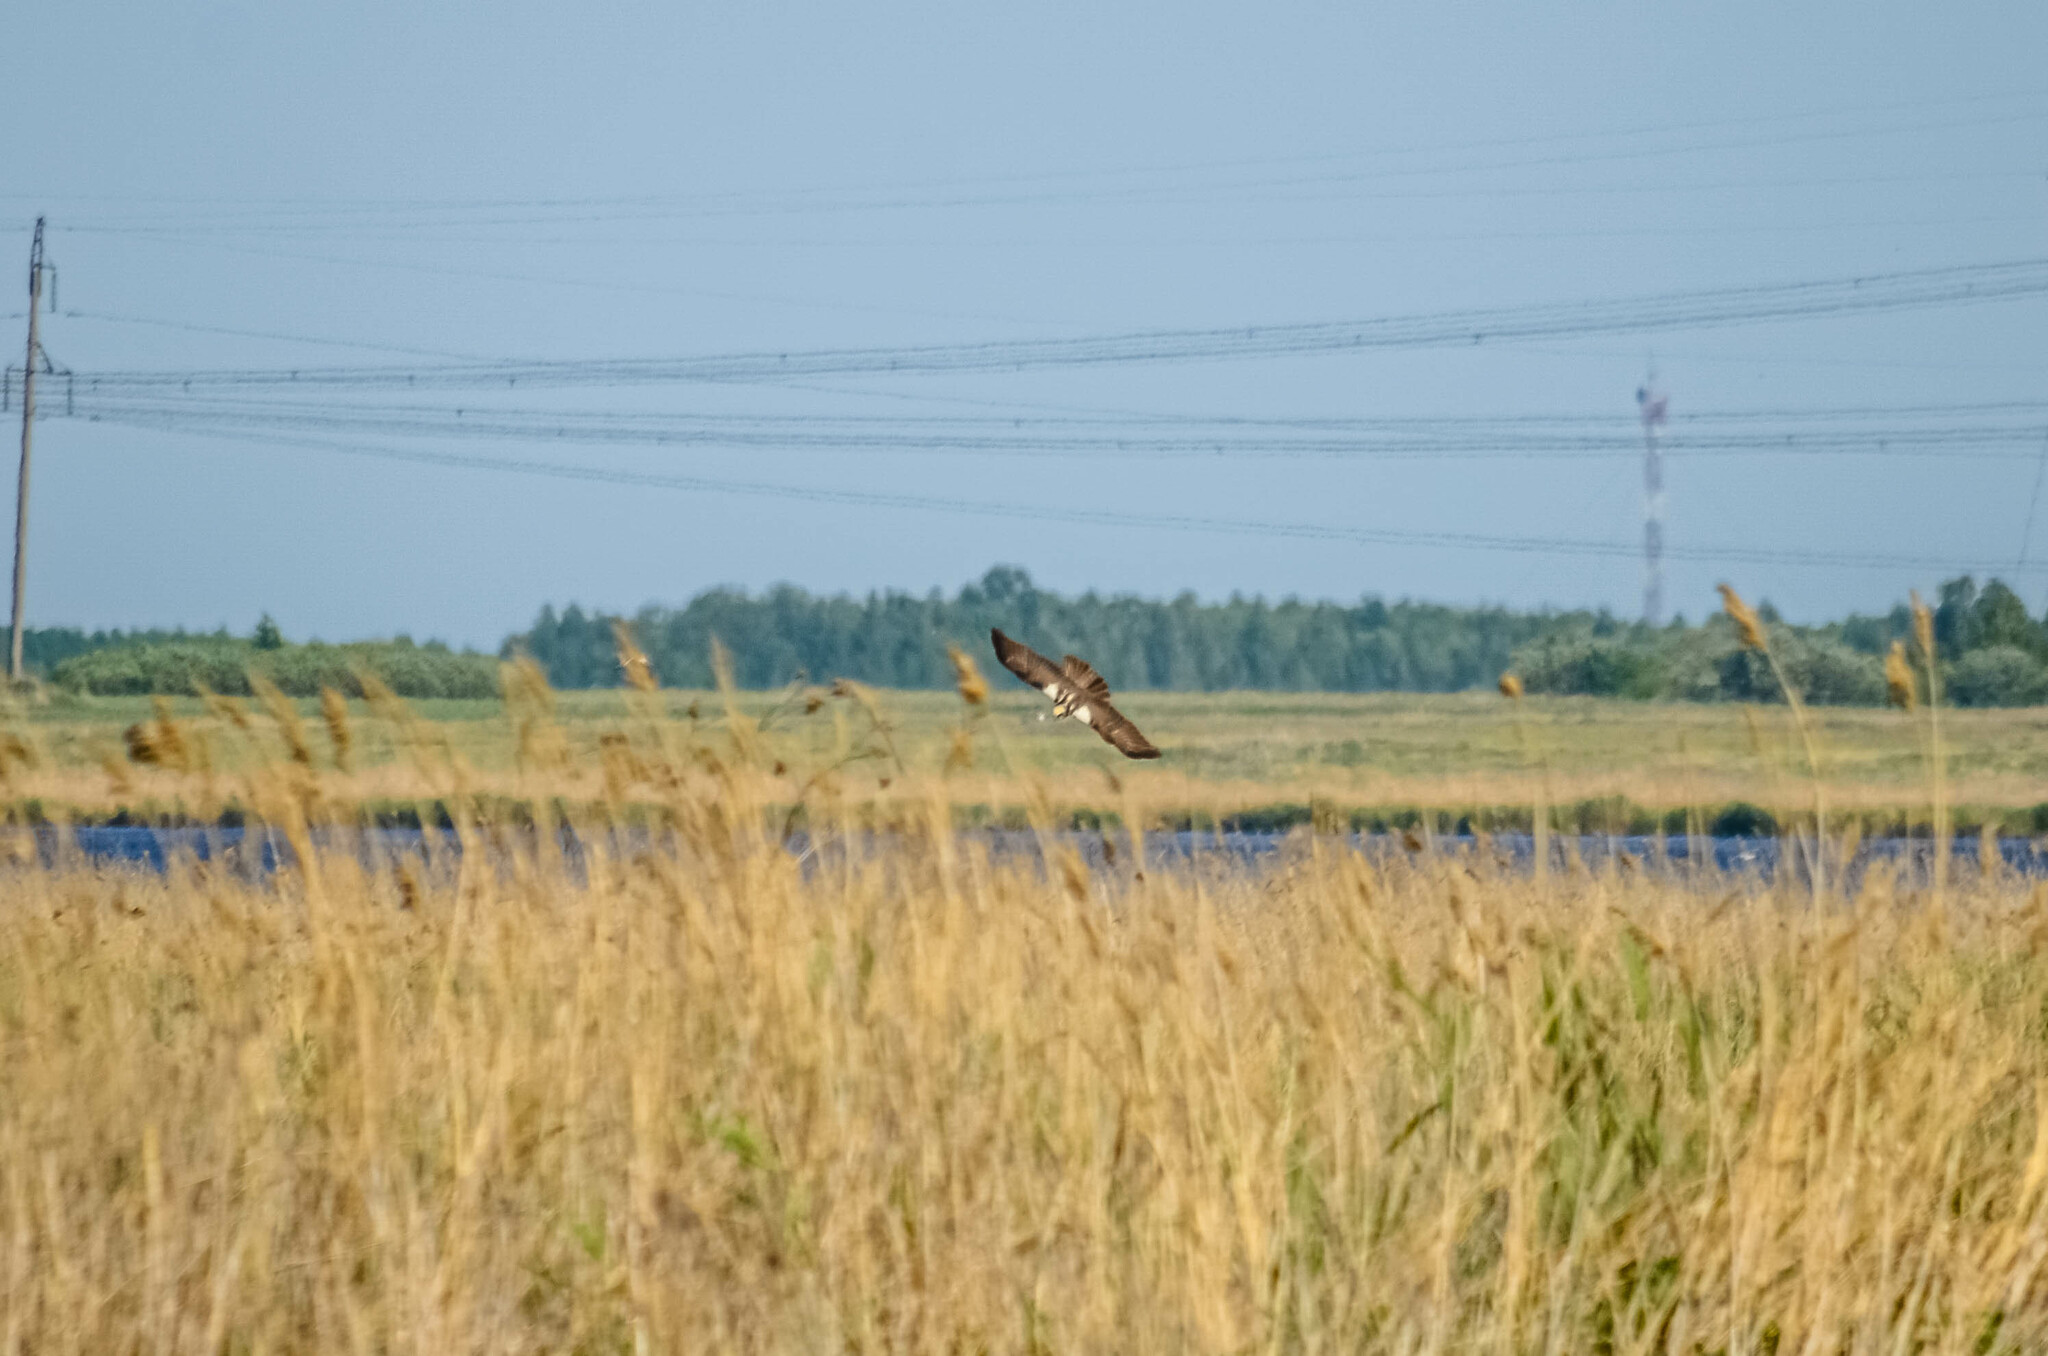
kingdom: Animalia
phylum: Chordata
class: Aves
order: Accipitriformes
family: Accipitridae
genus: Circus
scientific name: Circus aeruginosus
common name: Western marsh harrier
